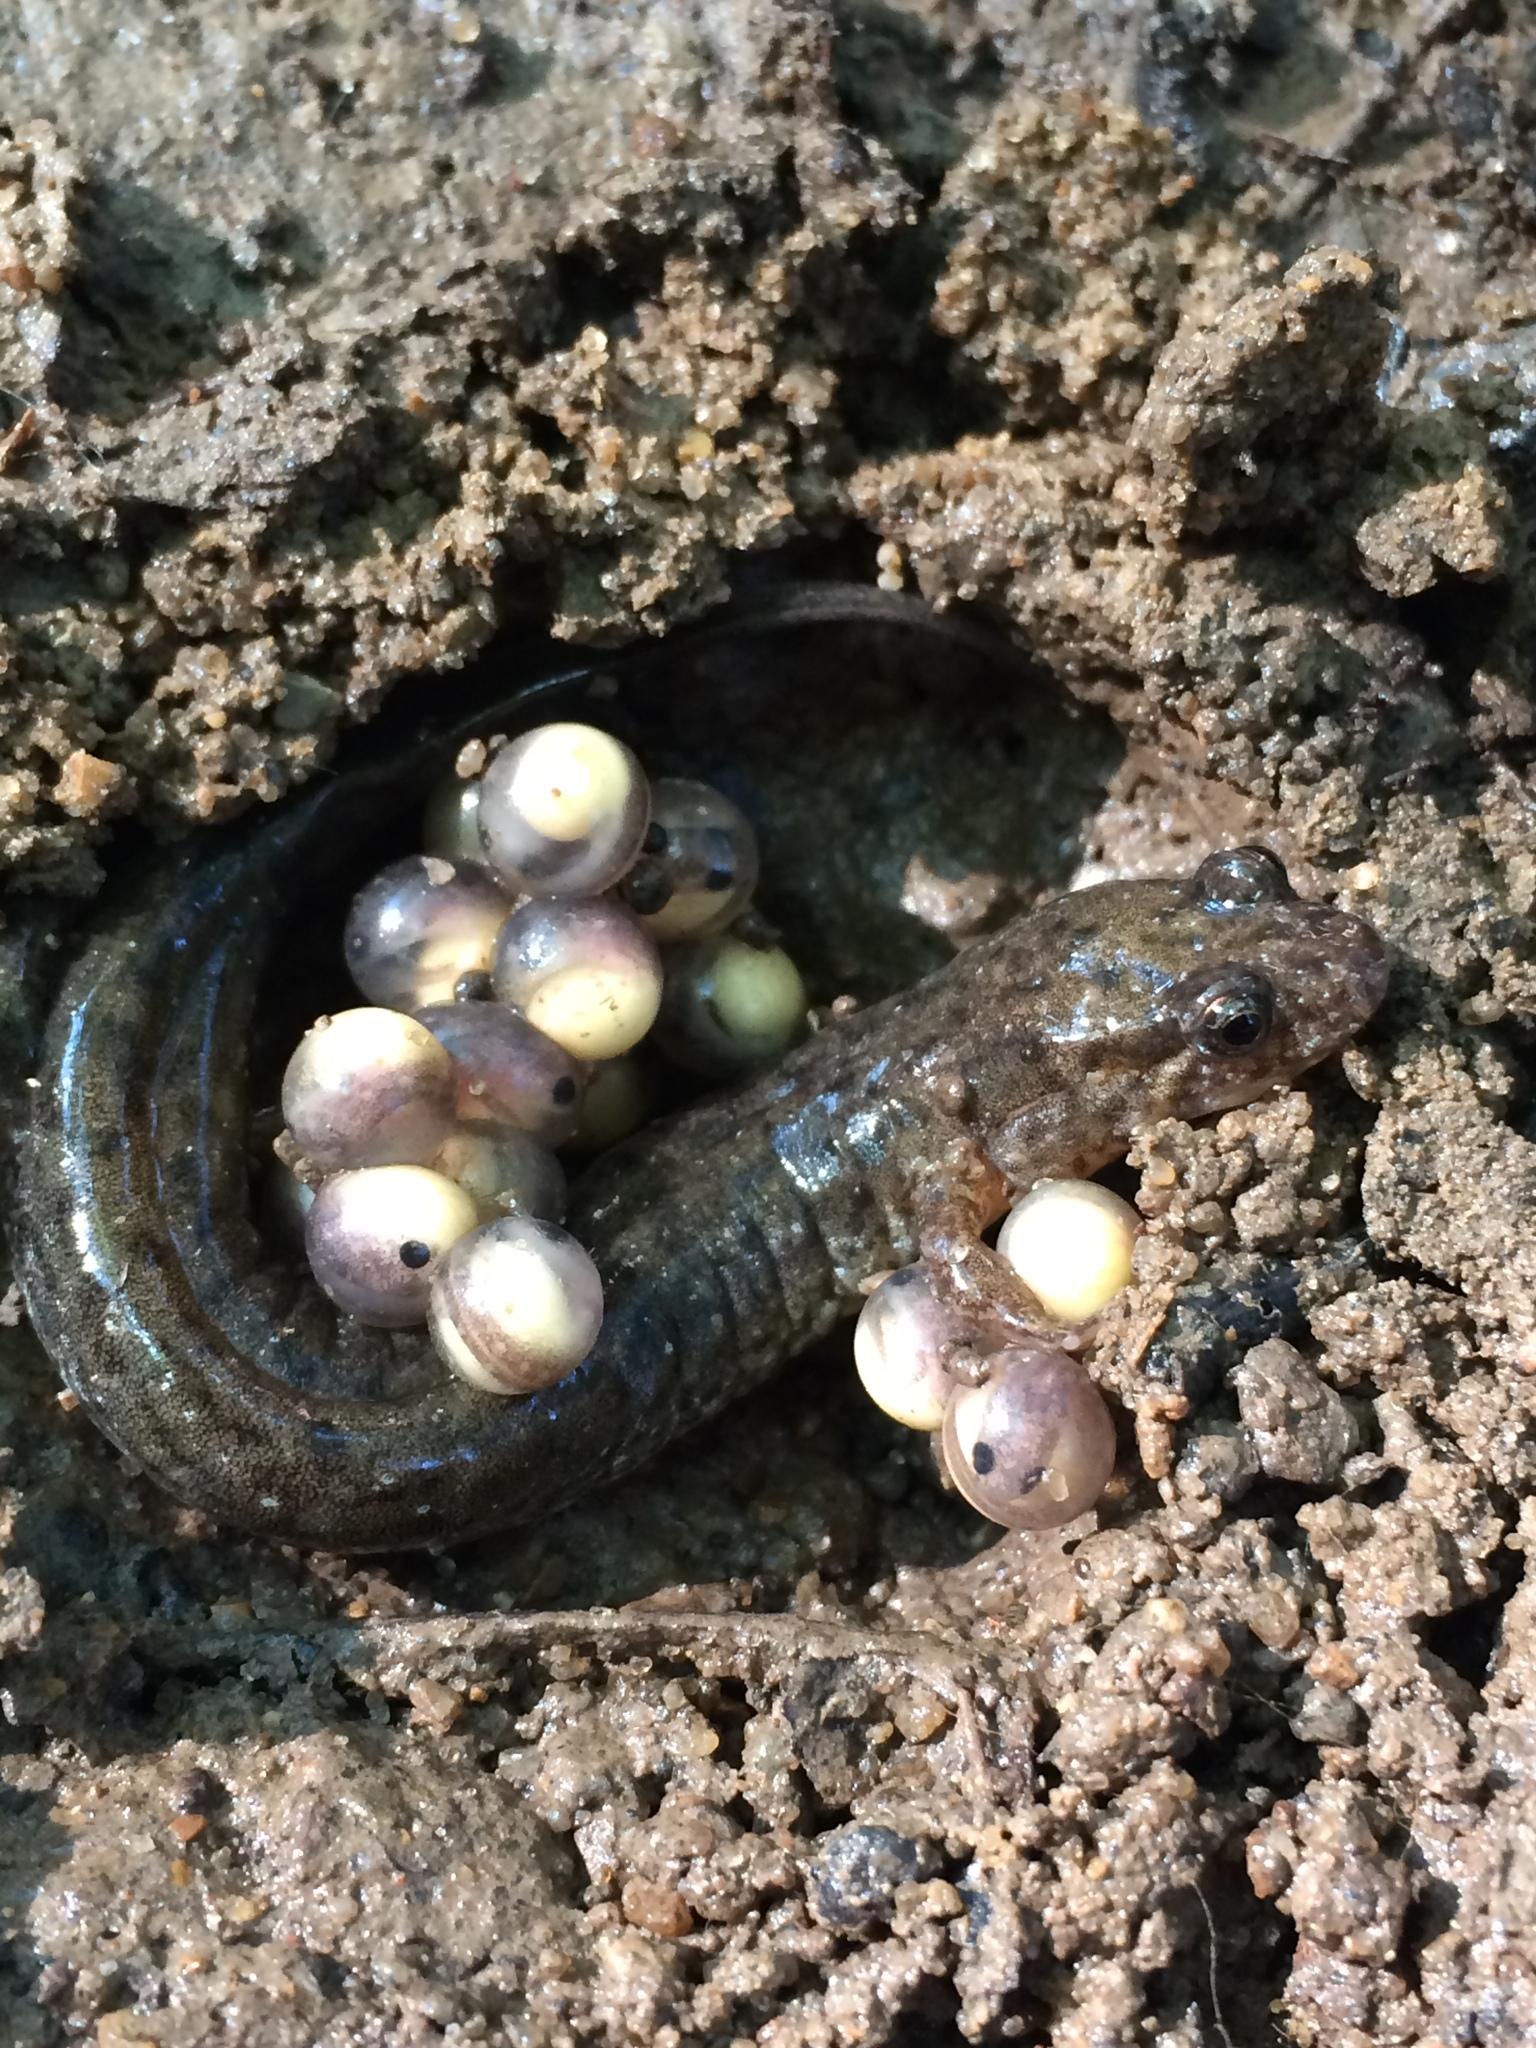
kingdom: Animalia
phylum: Chordata
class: Amphibia
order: Caudata
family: Plethodontidae
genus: Desmognathus
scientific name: Desmognathus fuscus
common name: Northern dusky salamander
